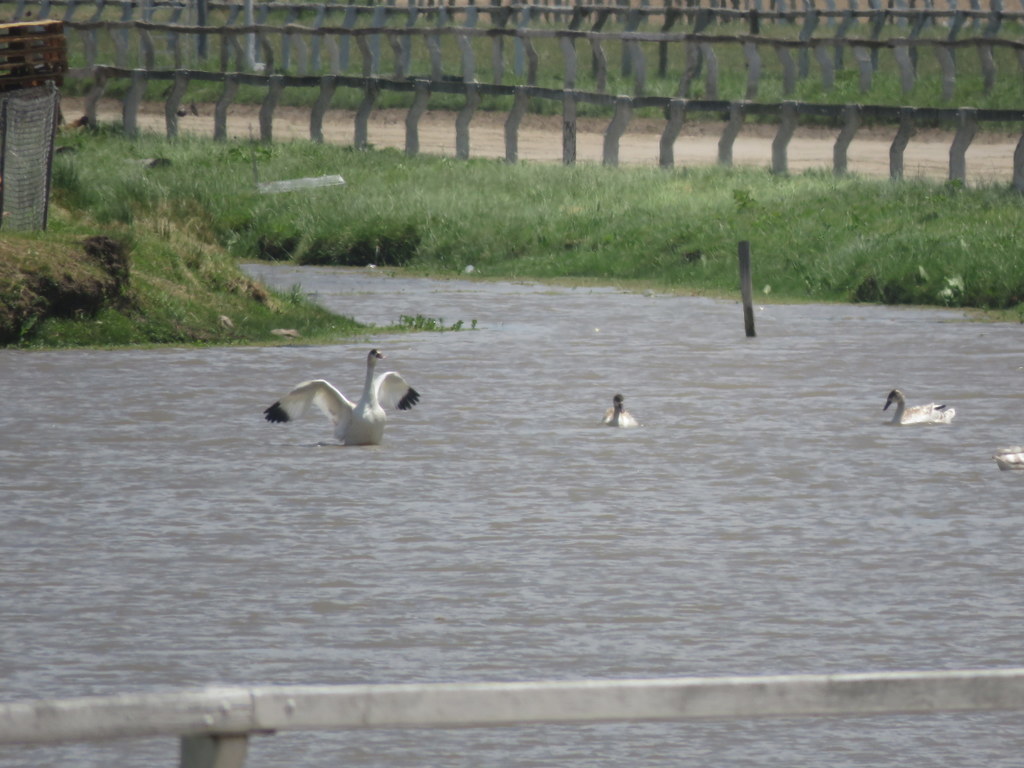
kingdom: Animalia
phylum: Chordata
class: Aves
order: Anseriformes
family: Anatidae
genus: Coscoroba
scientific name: Coscoroba coscoroba
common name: Coscoroba swan
